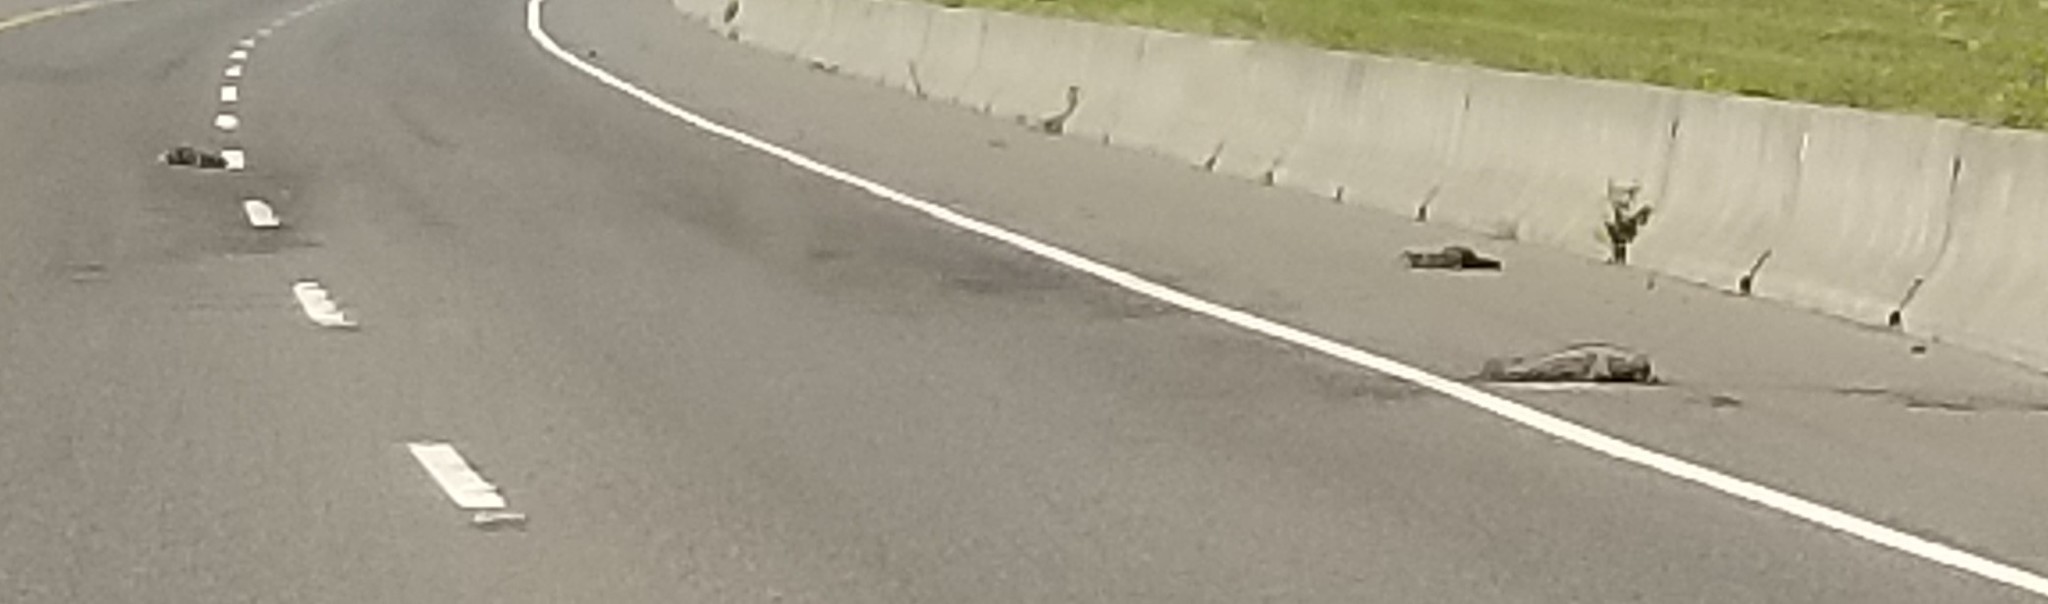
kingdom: Animalia
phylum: Chordata
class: Mammalia
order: Artiodactyla
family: Cervidae
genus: Odocoileus
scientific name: Odocoileus hemionus
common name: Mule deer
